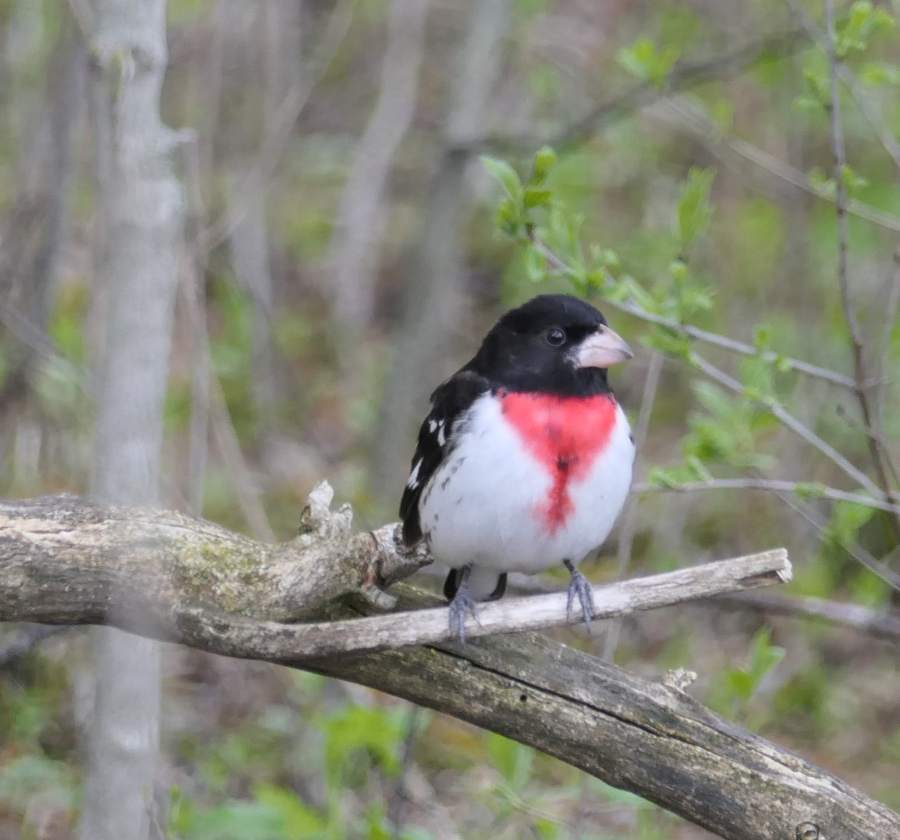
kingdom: Animalia
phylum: Chordata
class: Aves
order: Passeriformes
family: Cardinalidae
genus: Pheucticus
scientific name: Pheucticus ludovicianus
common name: Rose-breasted grosbeak
